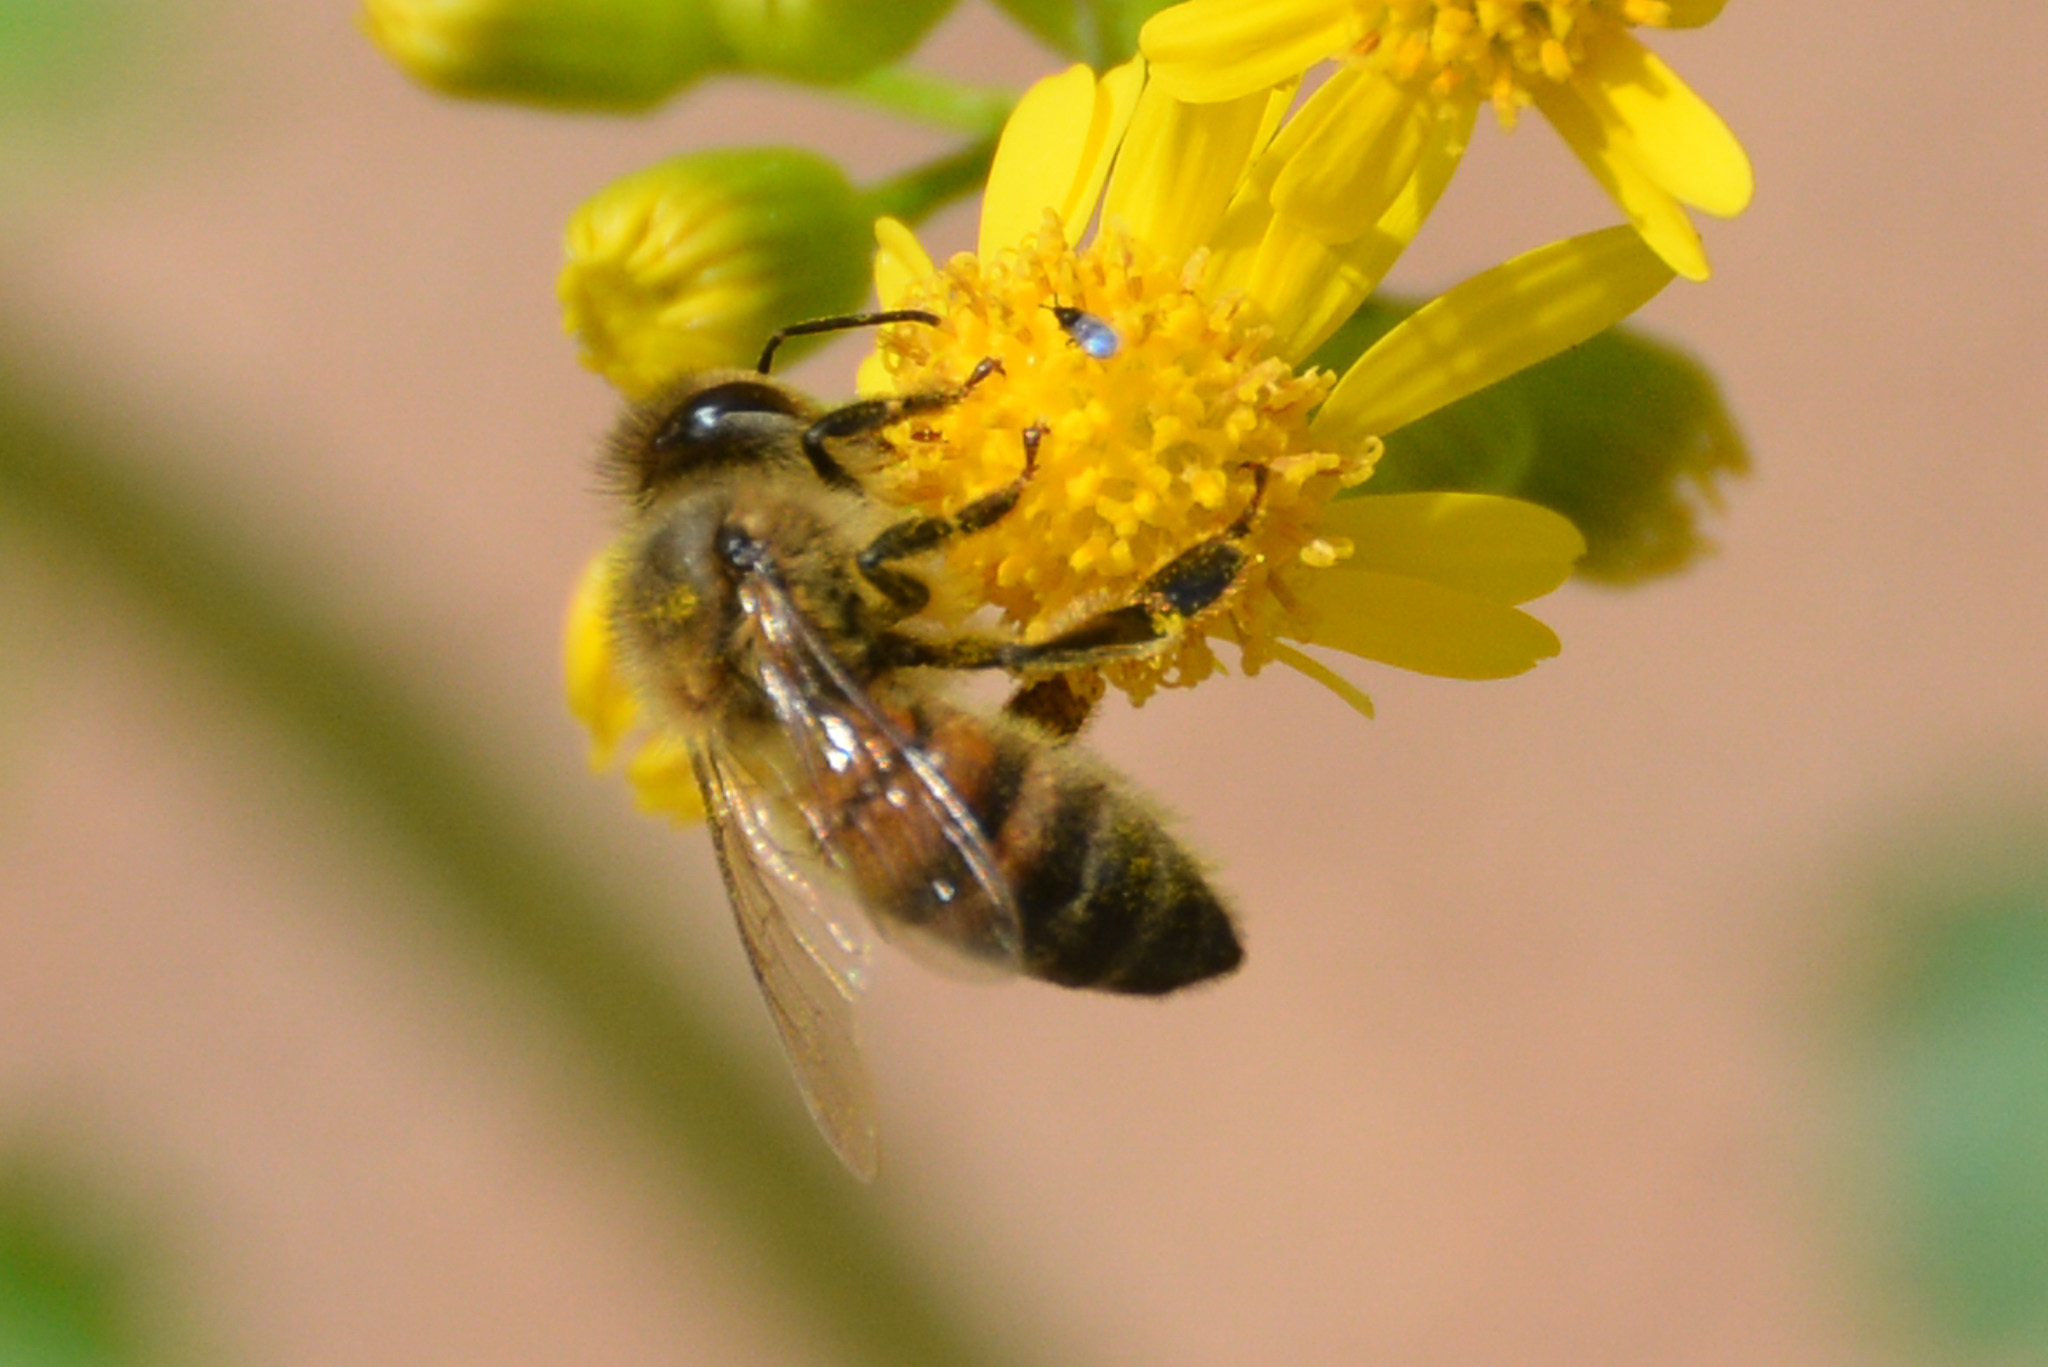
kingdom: Animalia
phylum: Arthropoda
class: Insecta
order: Hymenoptera
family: Apidae
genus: Apis
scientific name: Apis mellifera
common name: Honey bee
